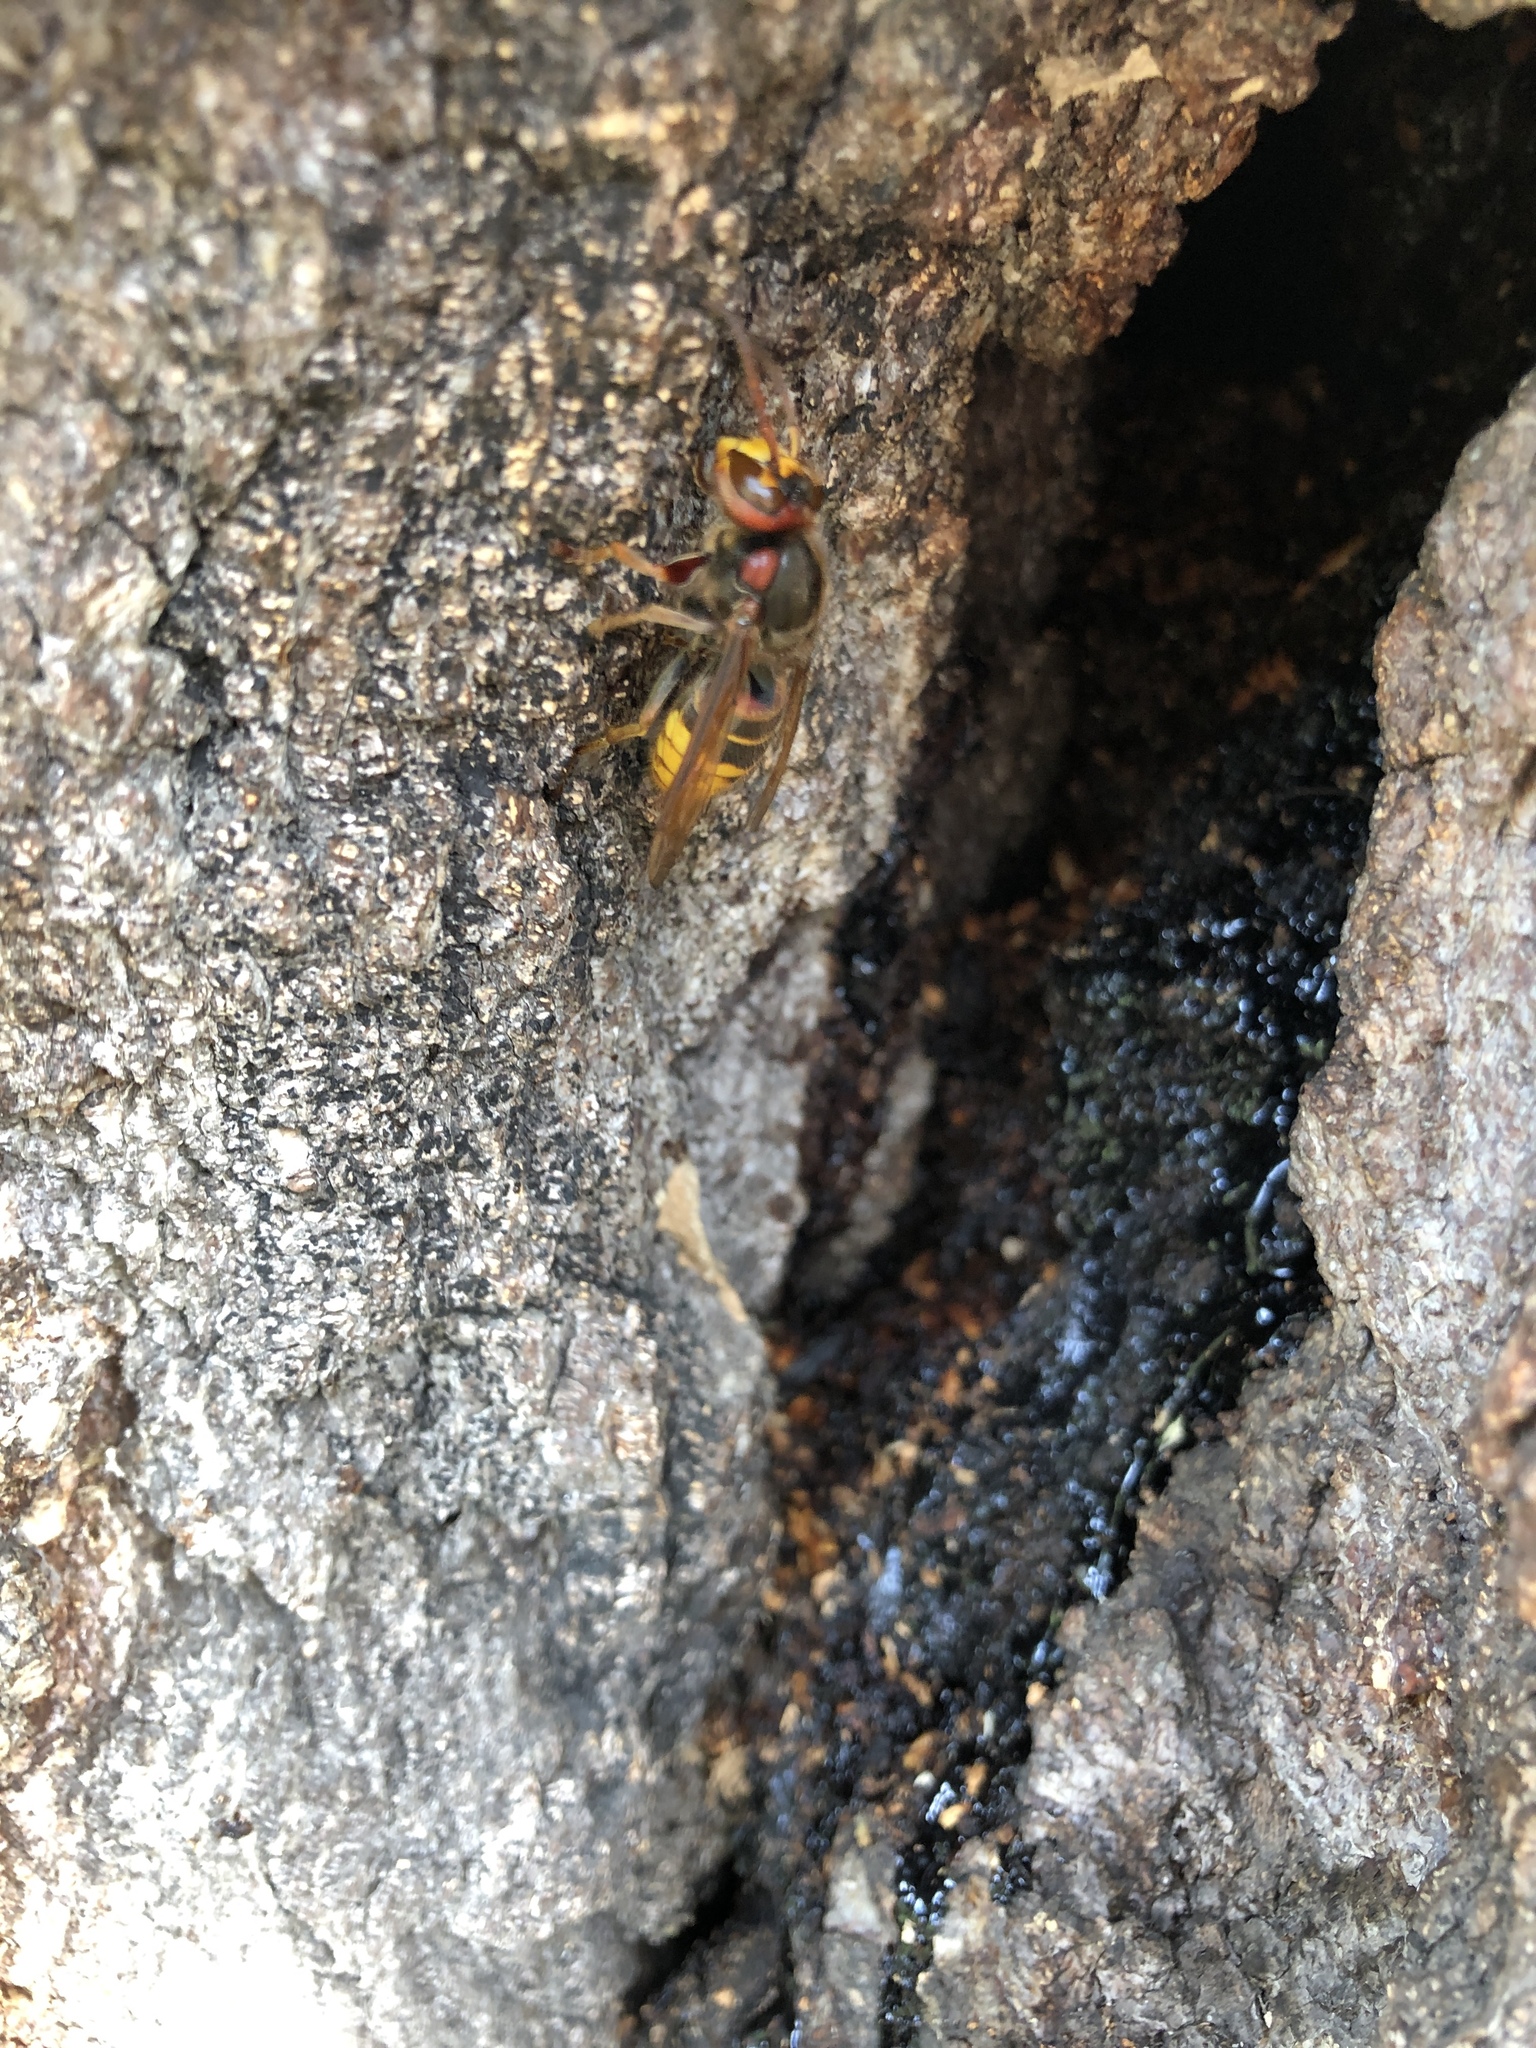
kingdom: Animalia
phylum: Arthropoda
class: Insecta
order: Hymenoptera
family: Vespidae
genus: Vespa
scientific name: Vespa crabro
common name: Hornet
